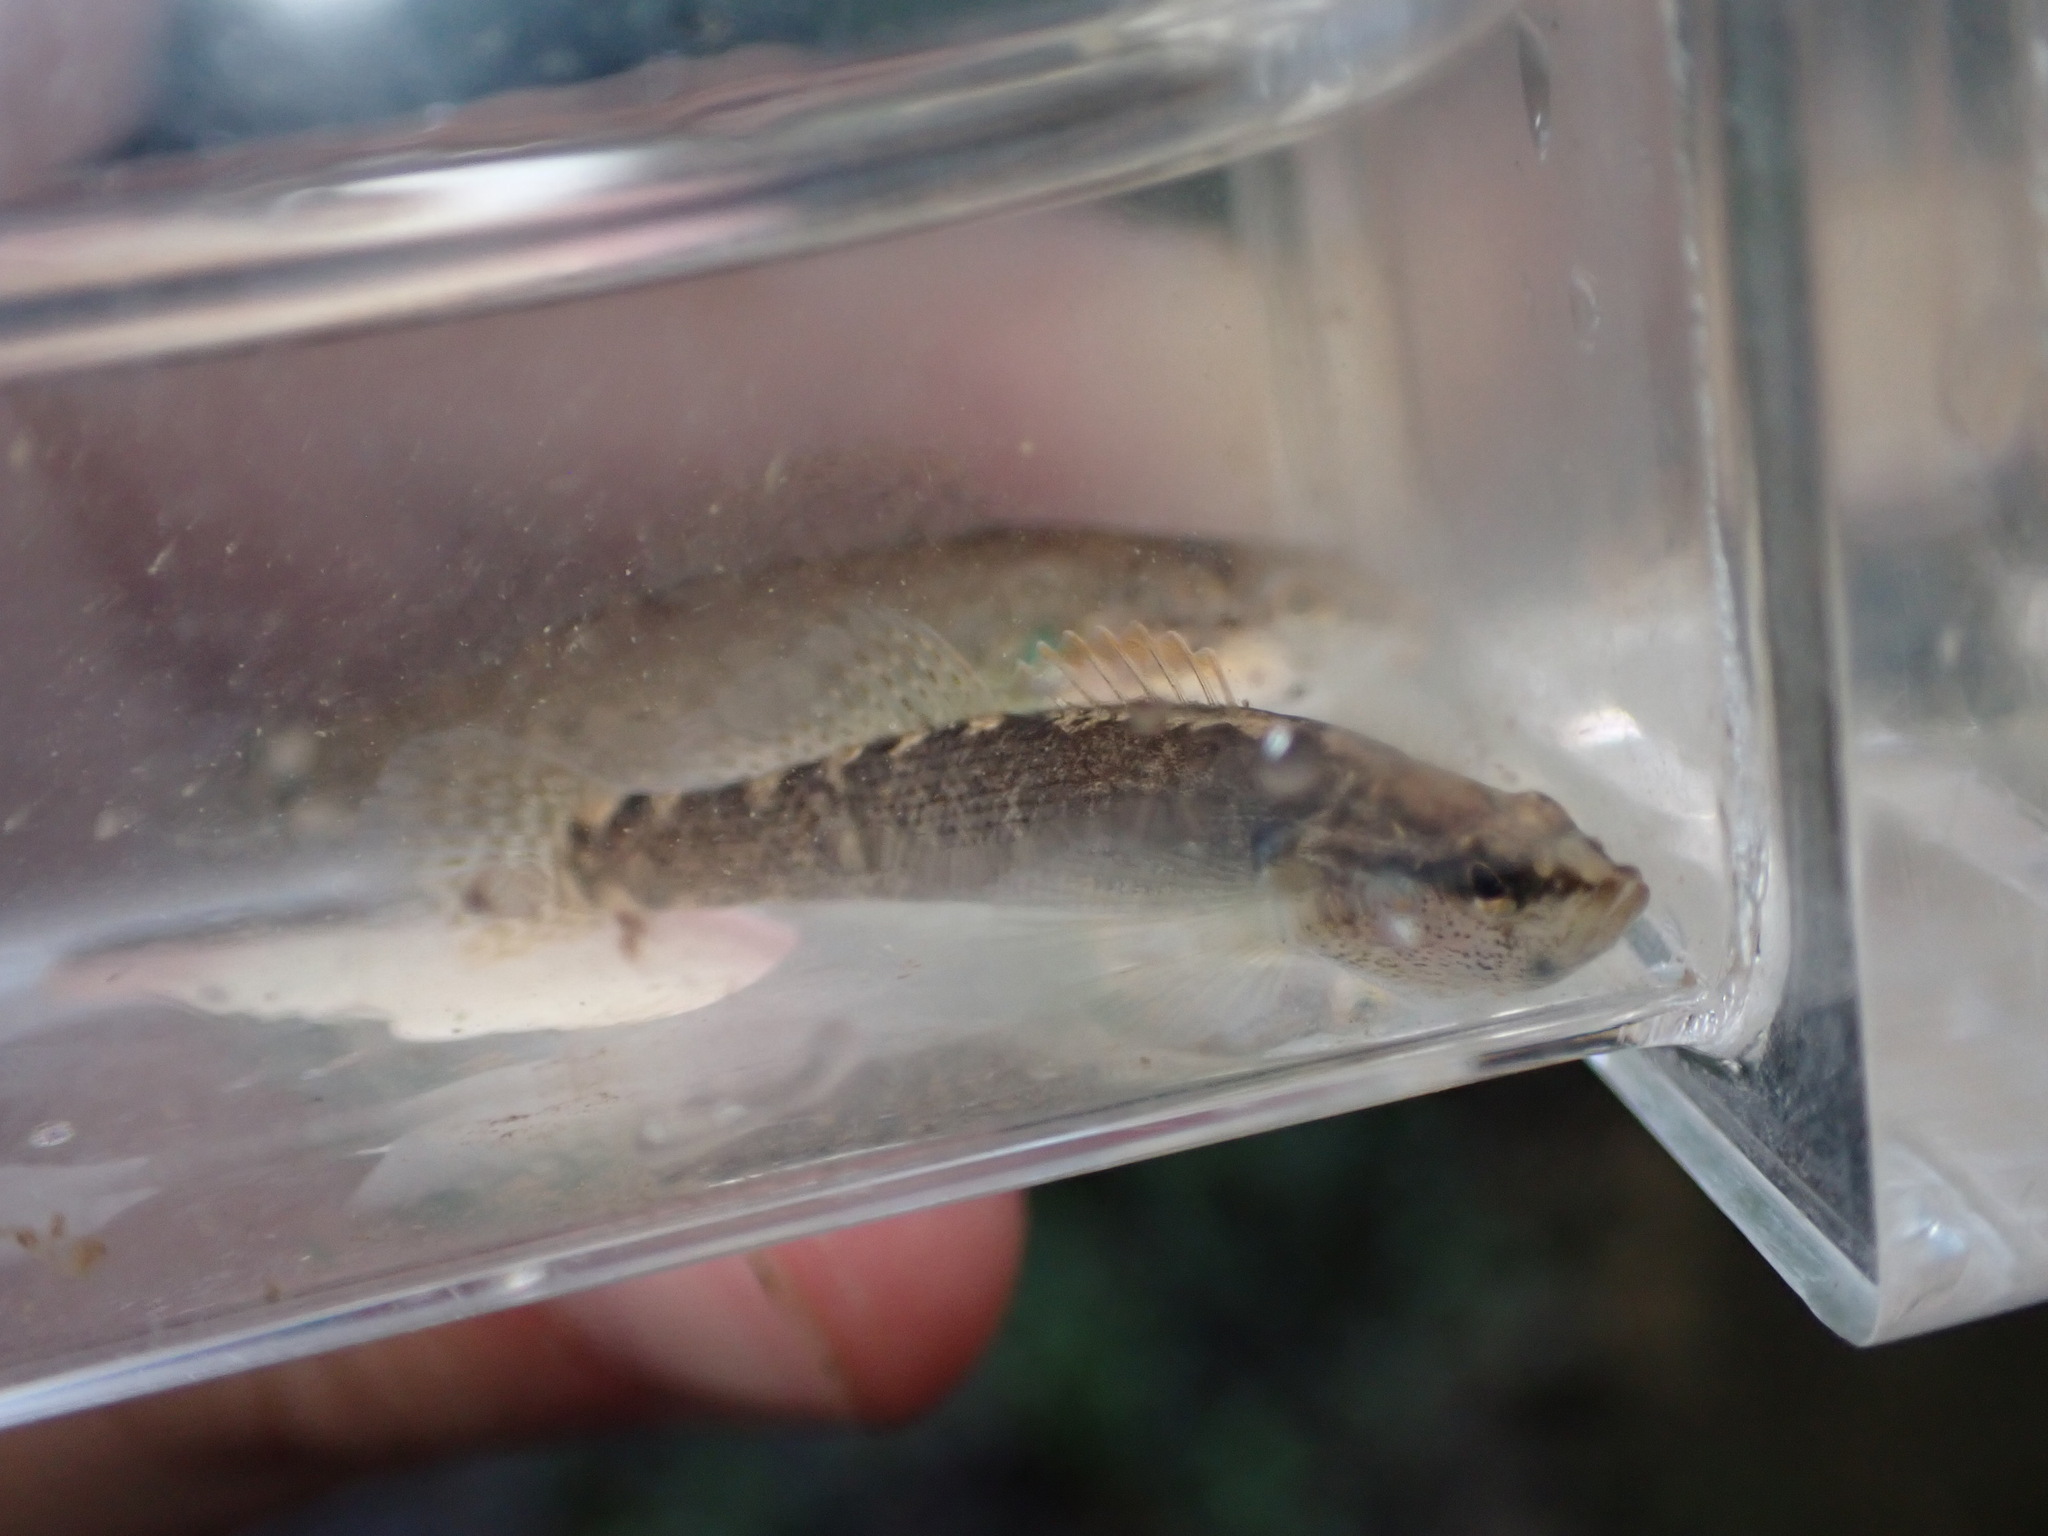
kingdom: Animalia
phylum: Chordata
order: Perciformes
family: Percidae
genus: Etheostoma
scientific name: Etheostoma flabellare
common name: Fantail darter
